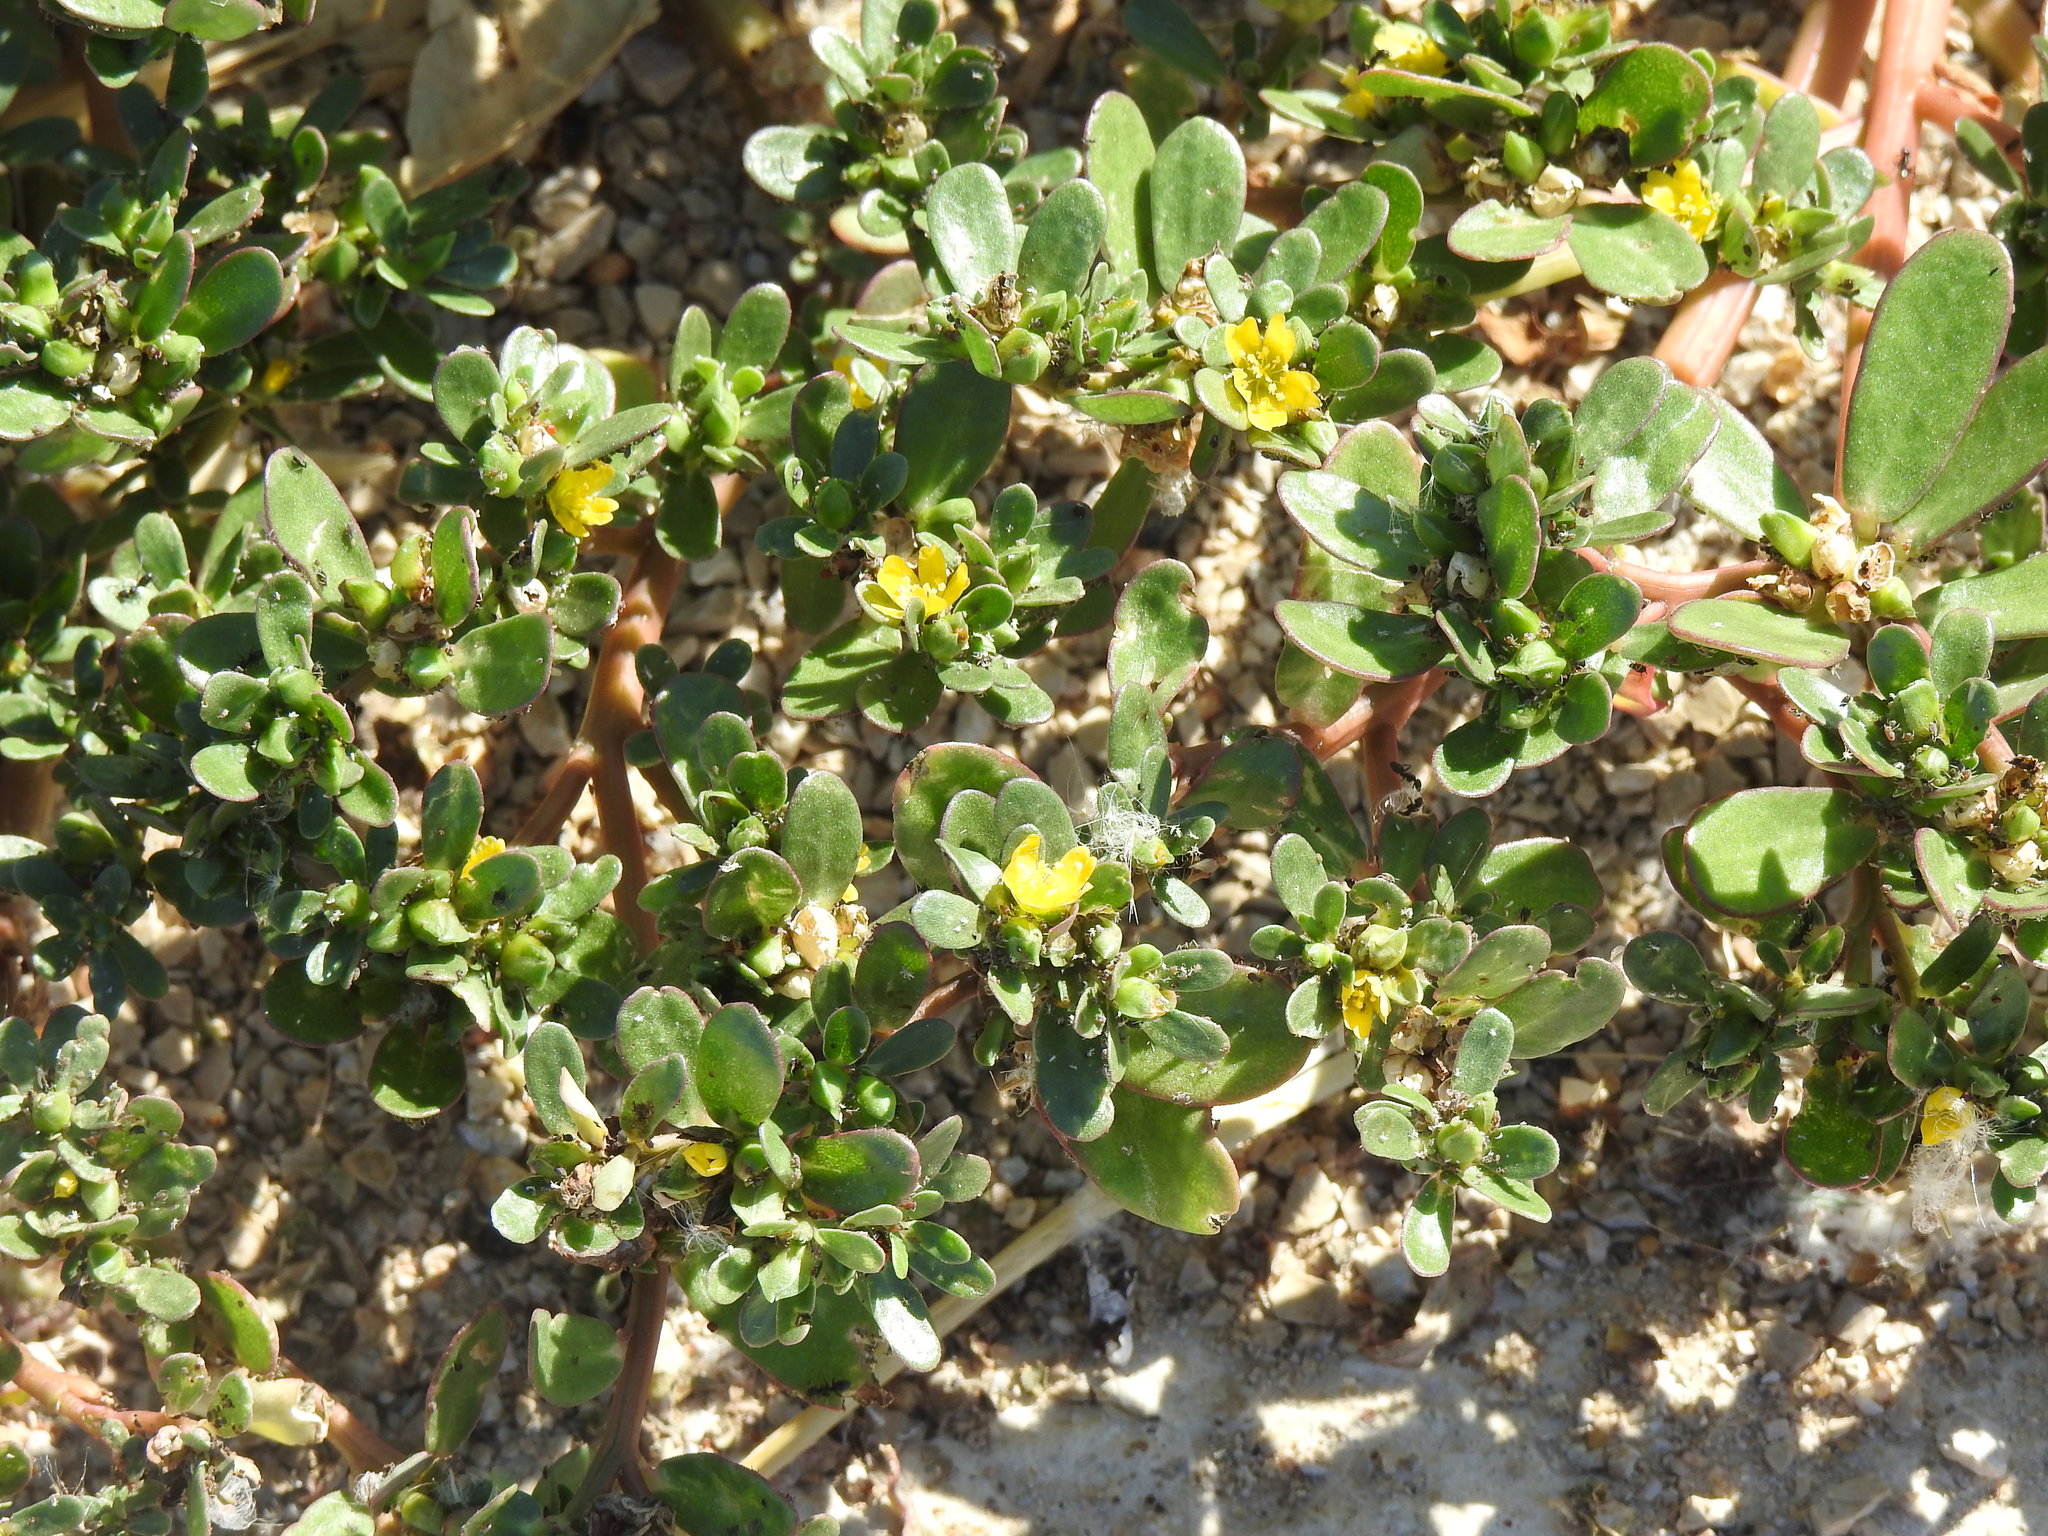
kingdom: Plantae
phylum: Tracheophyta
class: Magnoliopsida
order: Caryophyllales
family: Portulacaceae
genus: Portulaca
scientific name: Portulaca oleracea
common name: Common purslane
